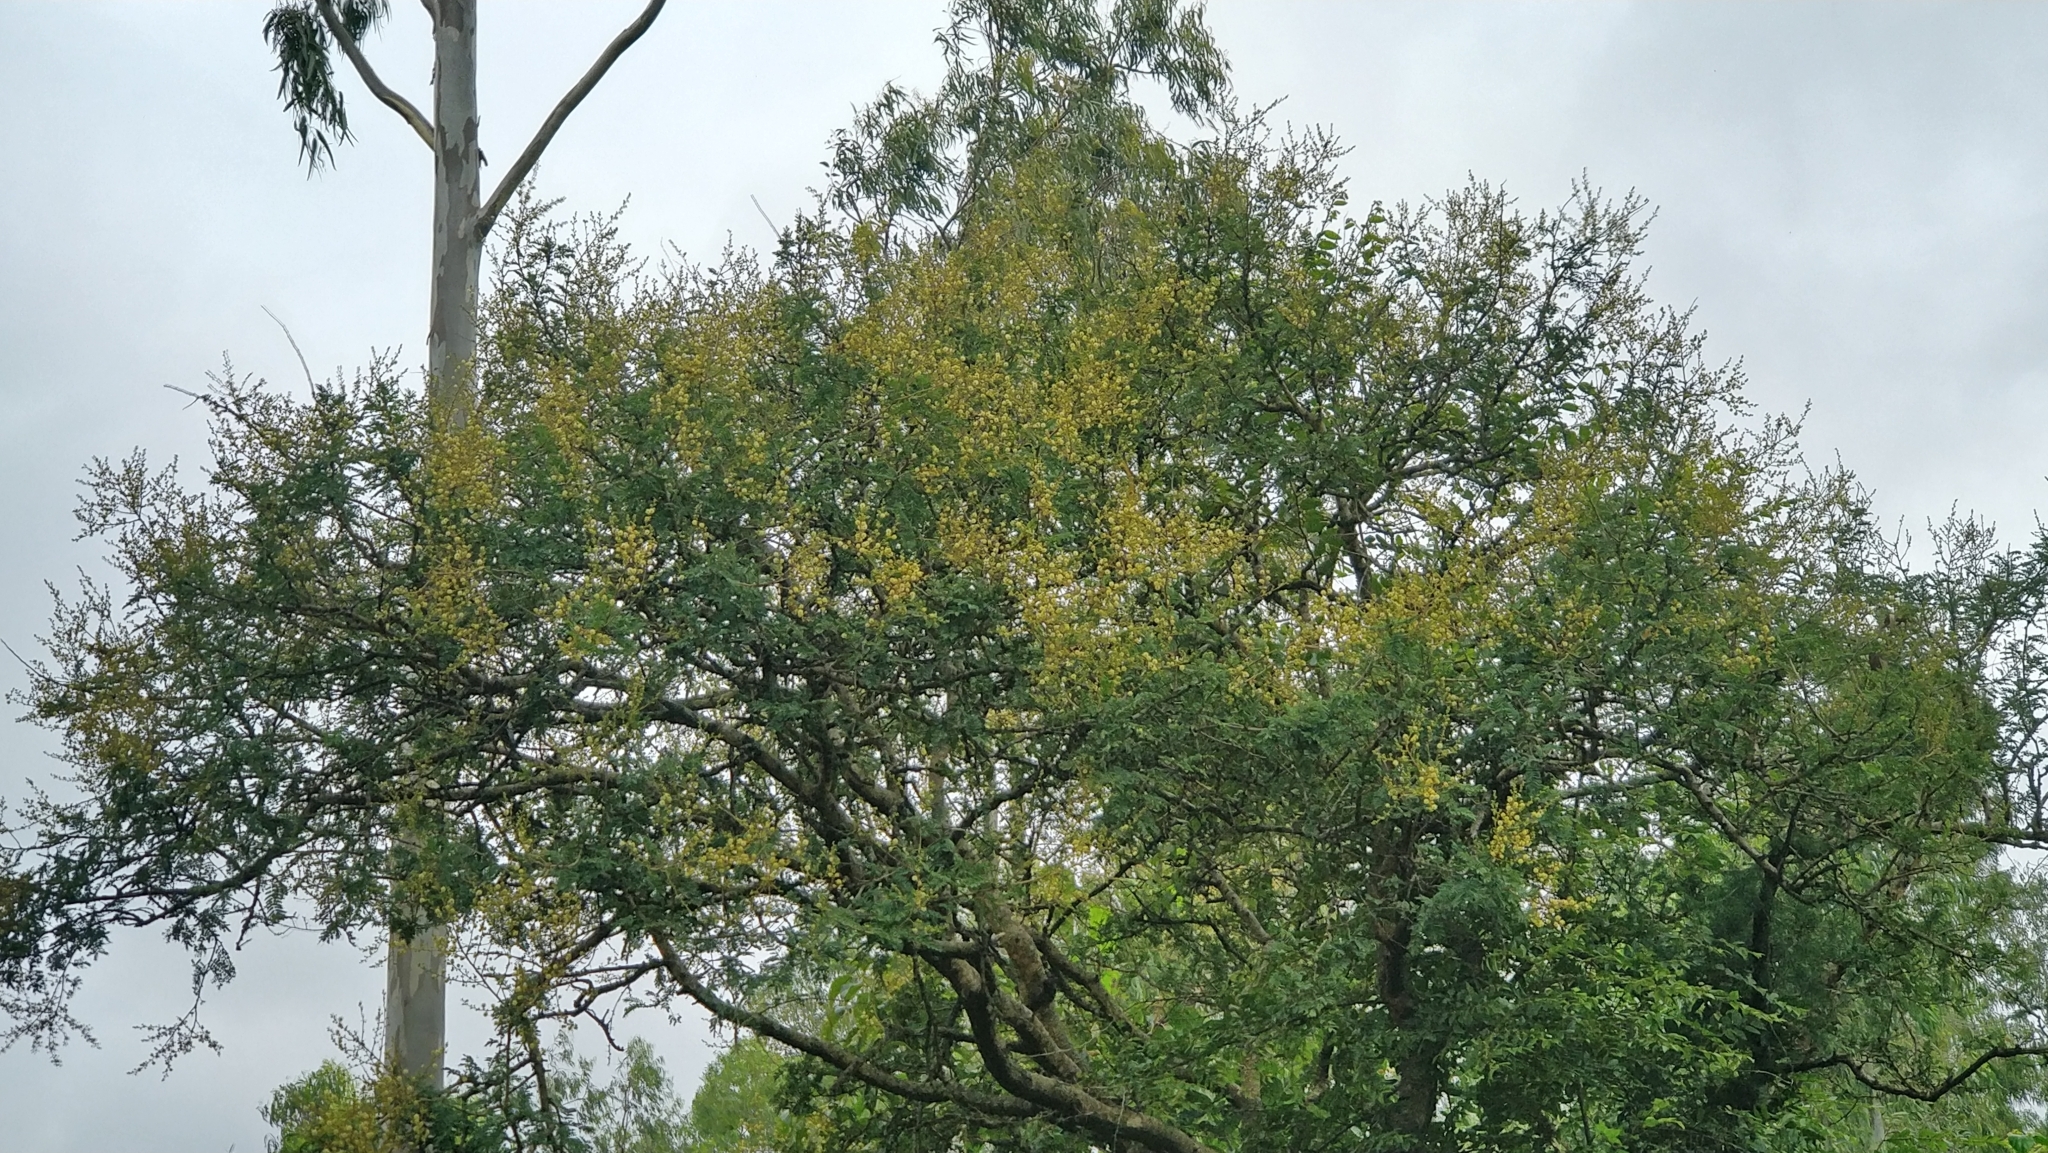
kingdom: Plantae
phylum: Tracheophyta
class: Magnoliopsida
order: Fabales
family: Fabaceae
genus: Vachellia
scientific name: Vachellia leucophloea
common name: Distiller's acacia
